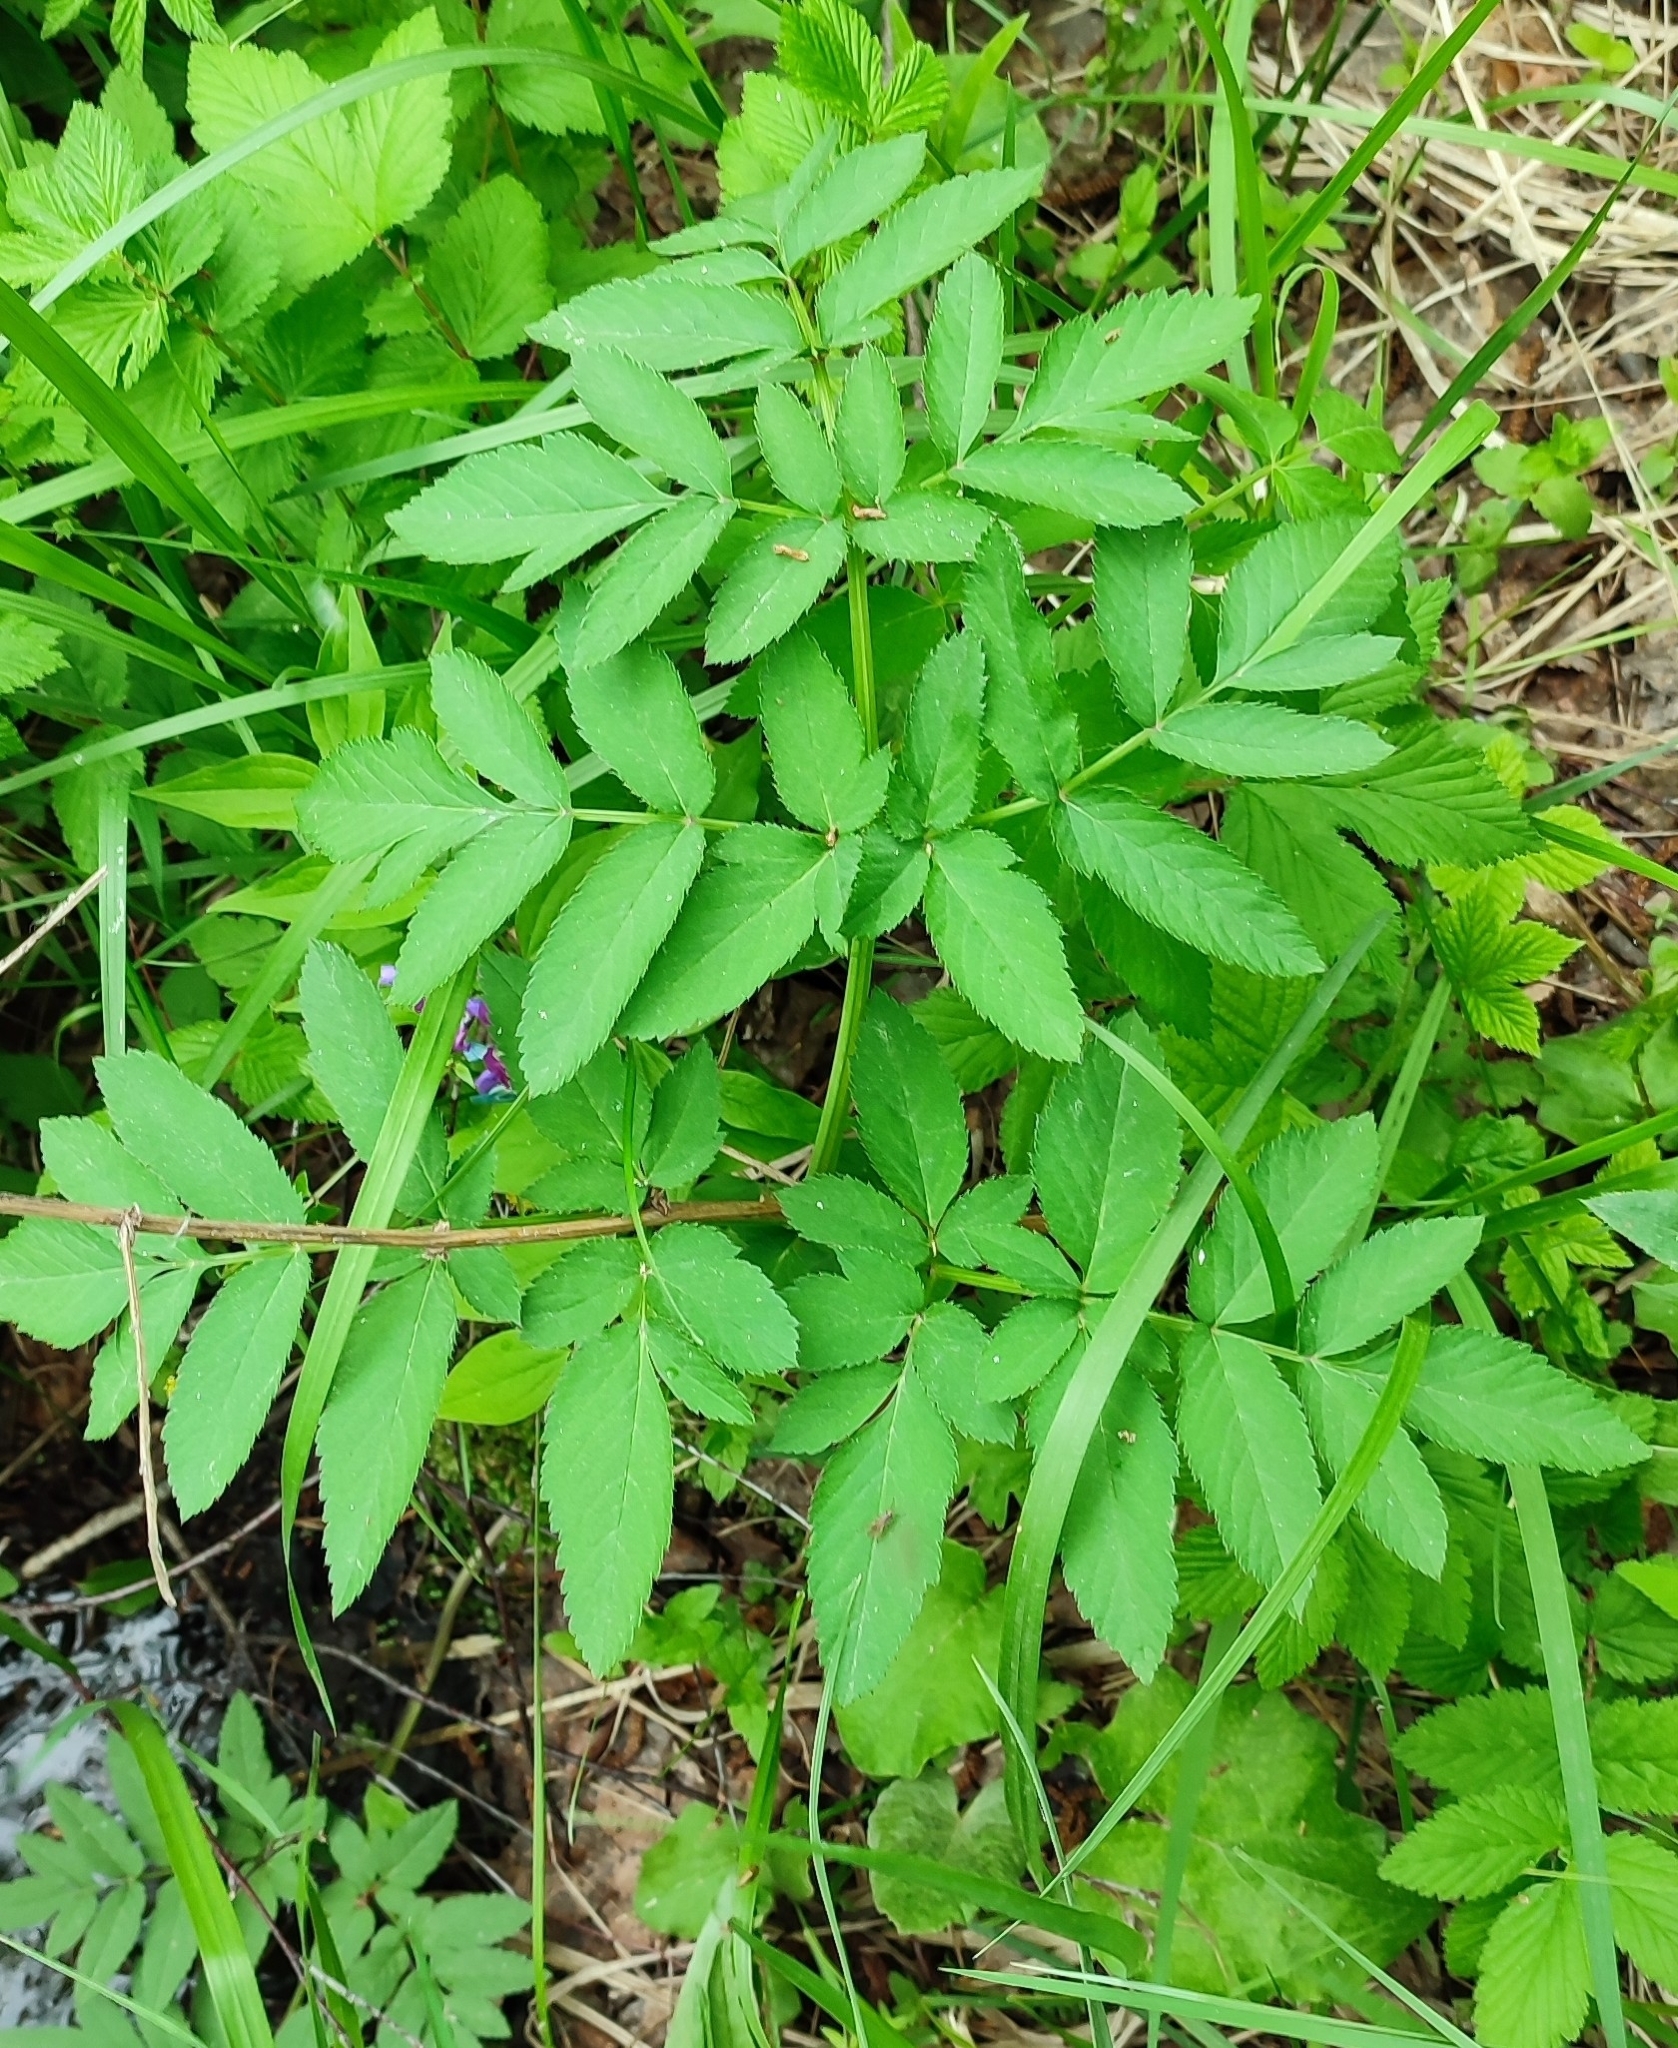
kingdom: Plantae
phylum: Tracheophyta
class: Magnoliopsida
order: Apiales
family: Apiaceae
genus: Angelica
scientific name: Angelica sylvestris
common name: Wild angelica
